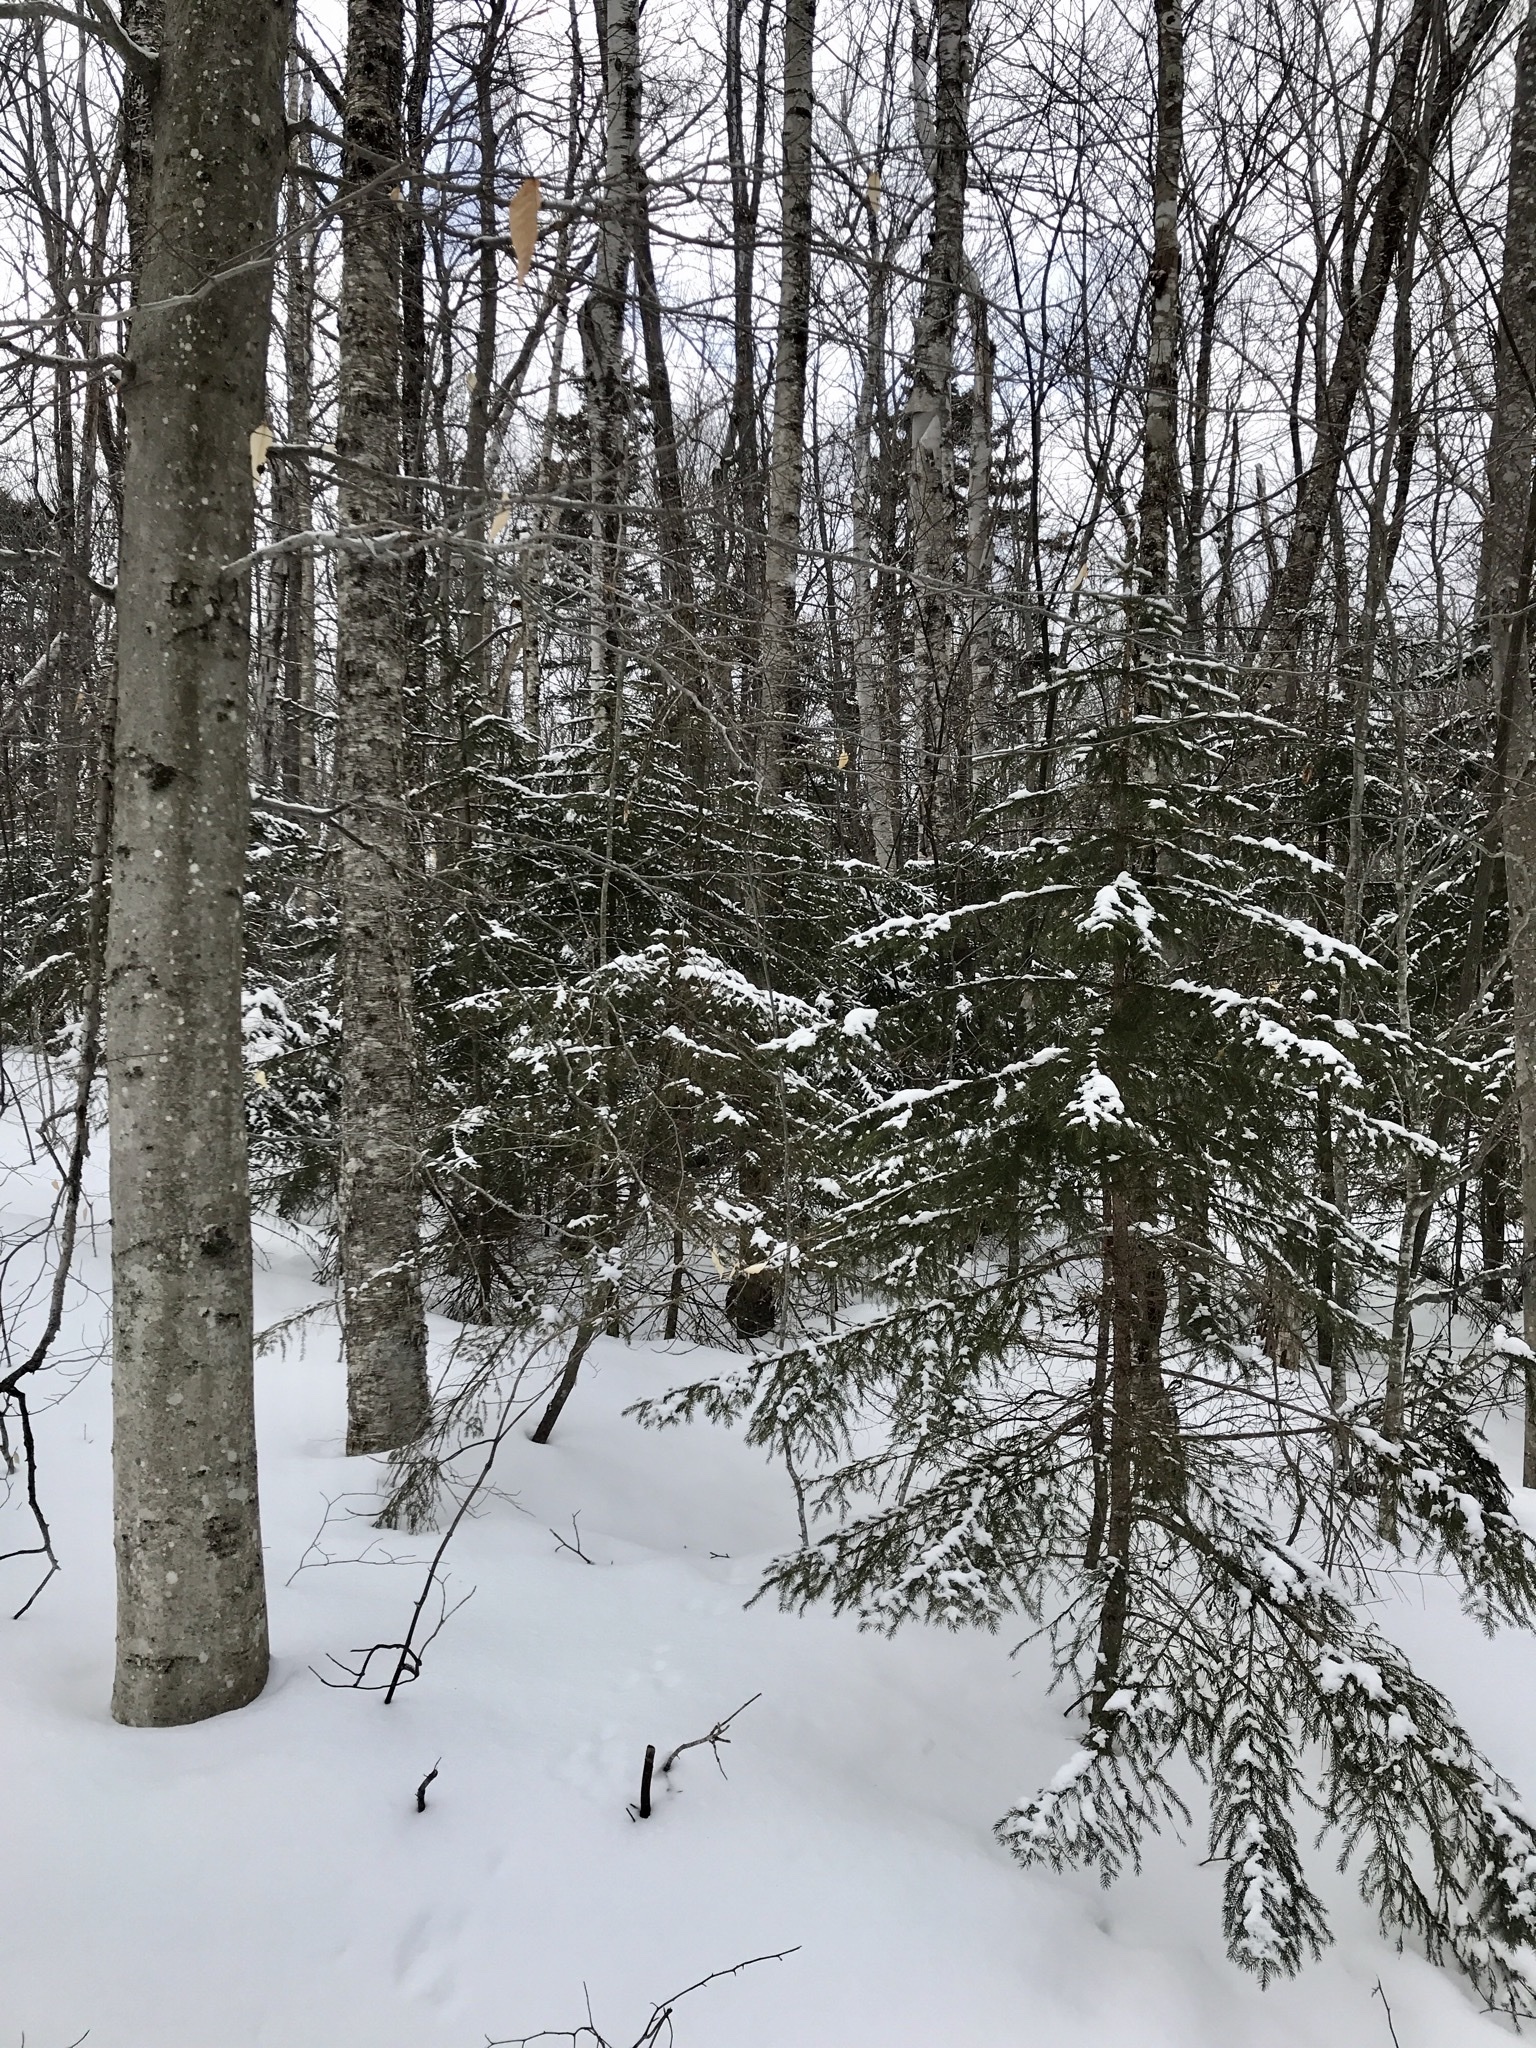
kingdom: Plantae
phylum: Tracheophyta
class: Pinopsida
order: Pinales
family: Pinaceae
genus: Picea
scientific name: Picea rubens
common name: Red spruce
